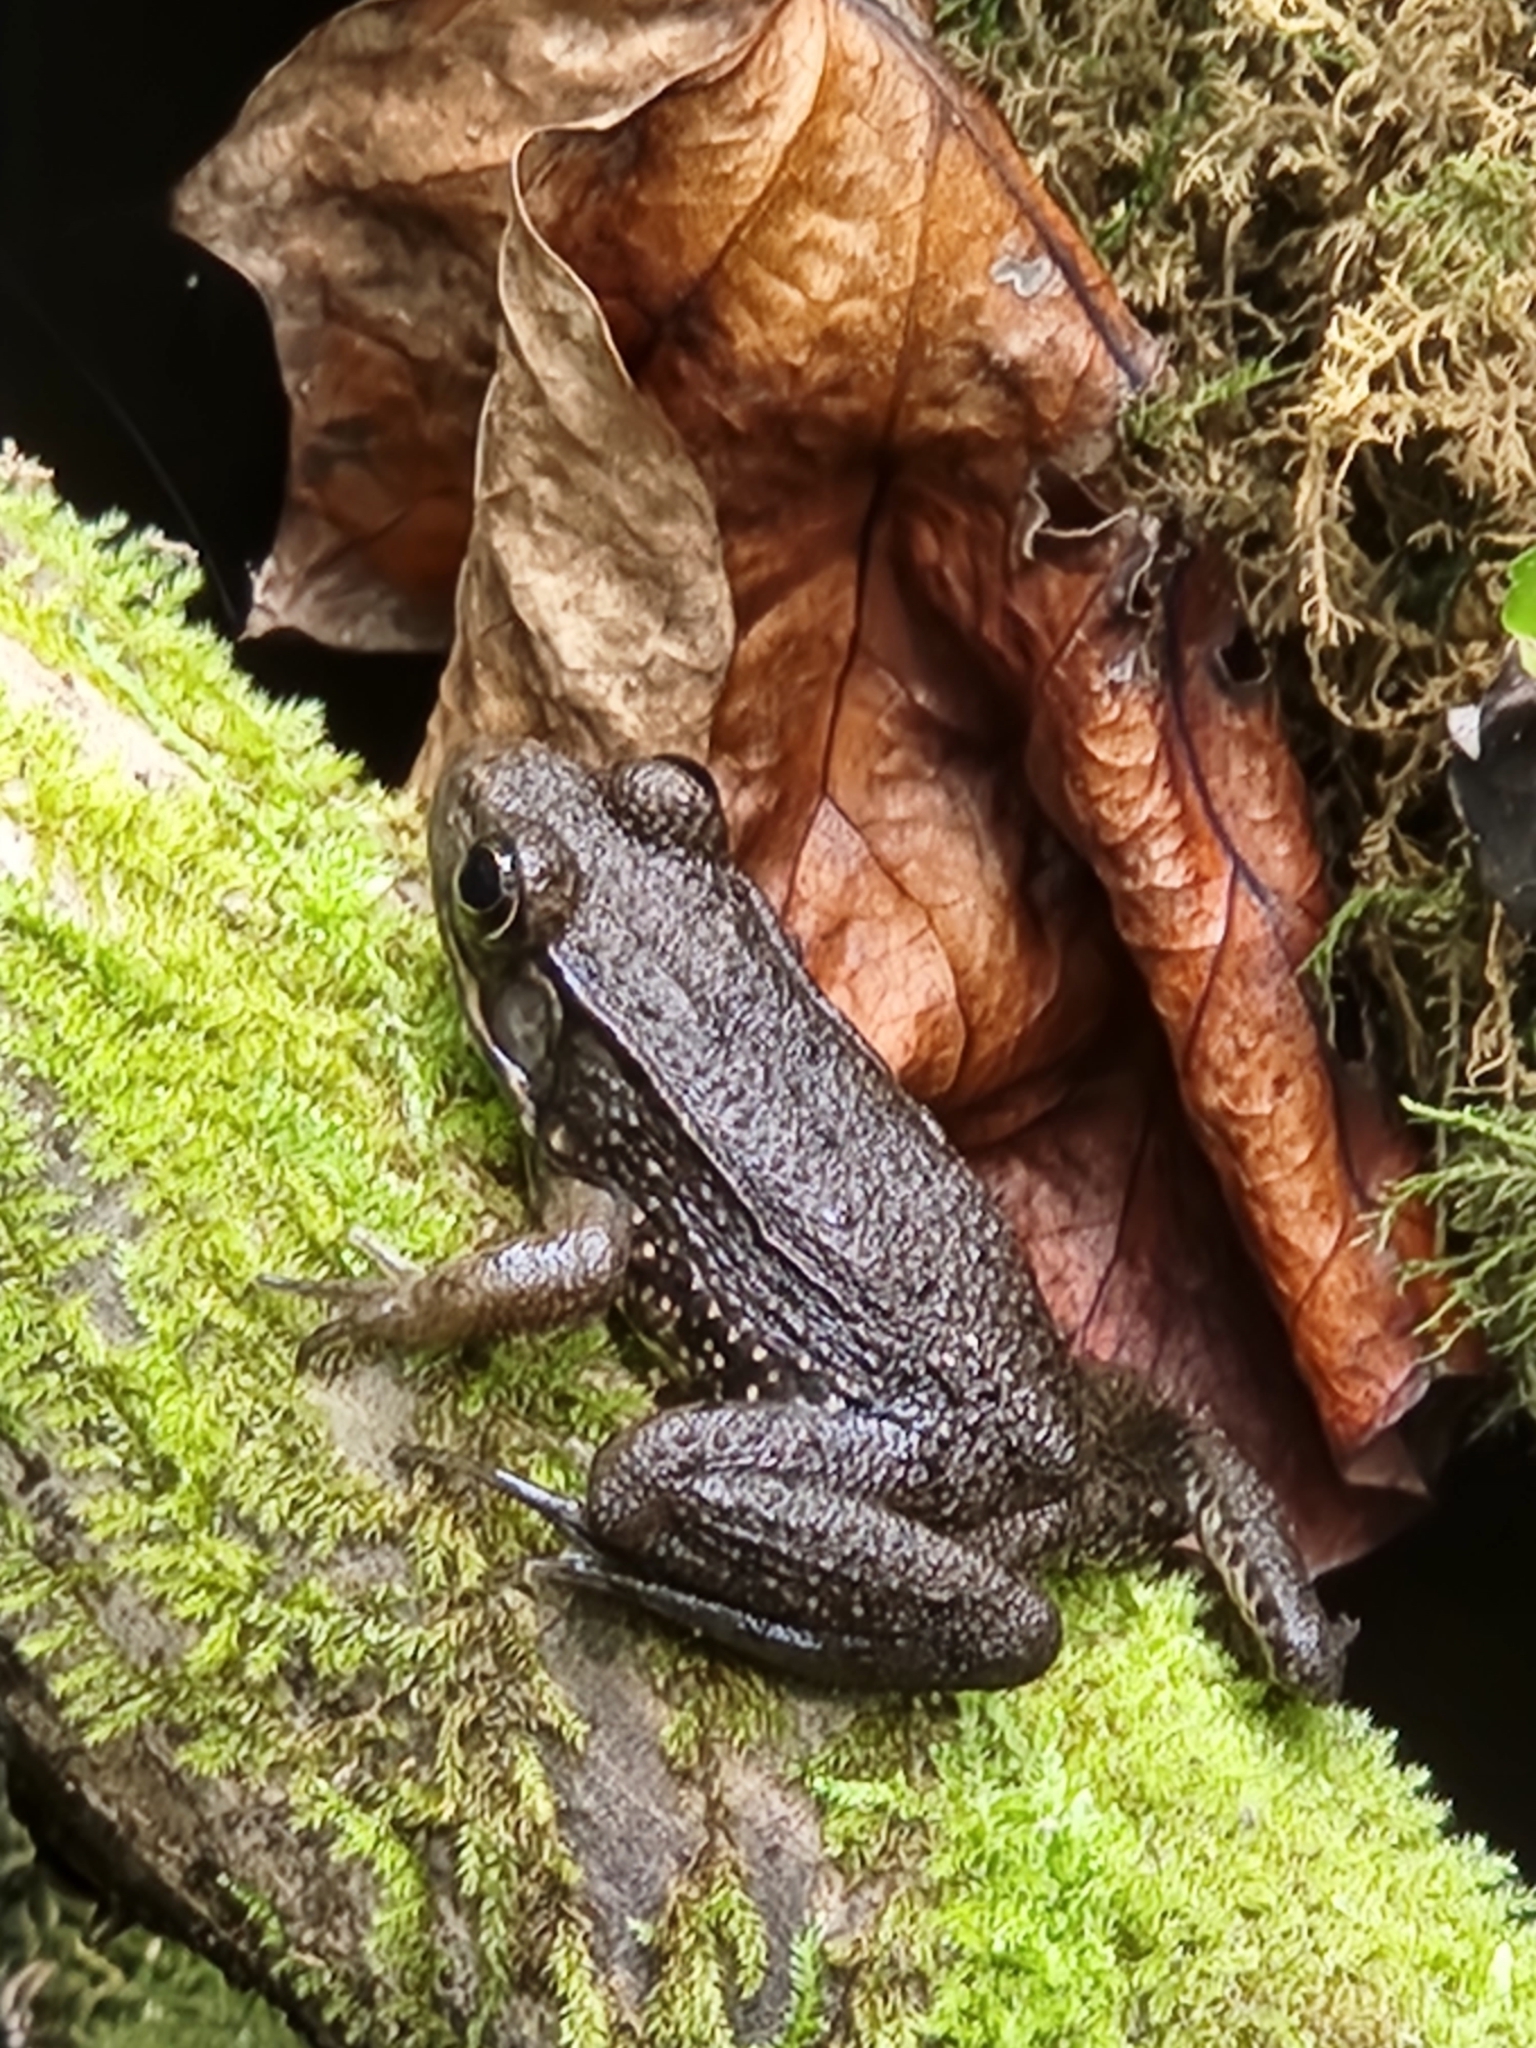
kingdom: Animalia
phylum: Chordata
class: Amphibia
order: Anura
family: Ranidae
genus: Lithobates
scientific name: Lithobates clamitans
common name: Green frog
